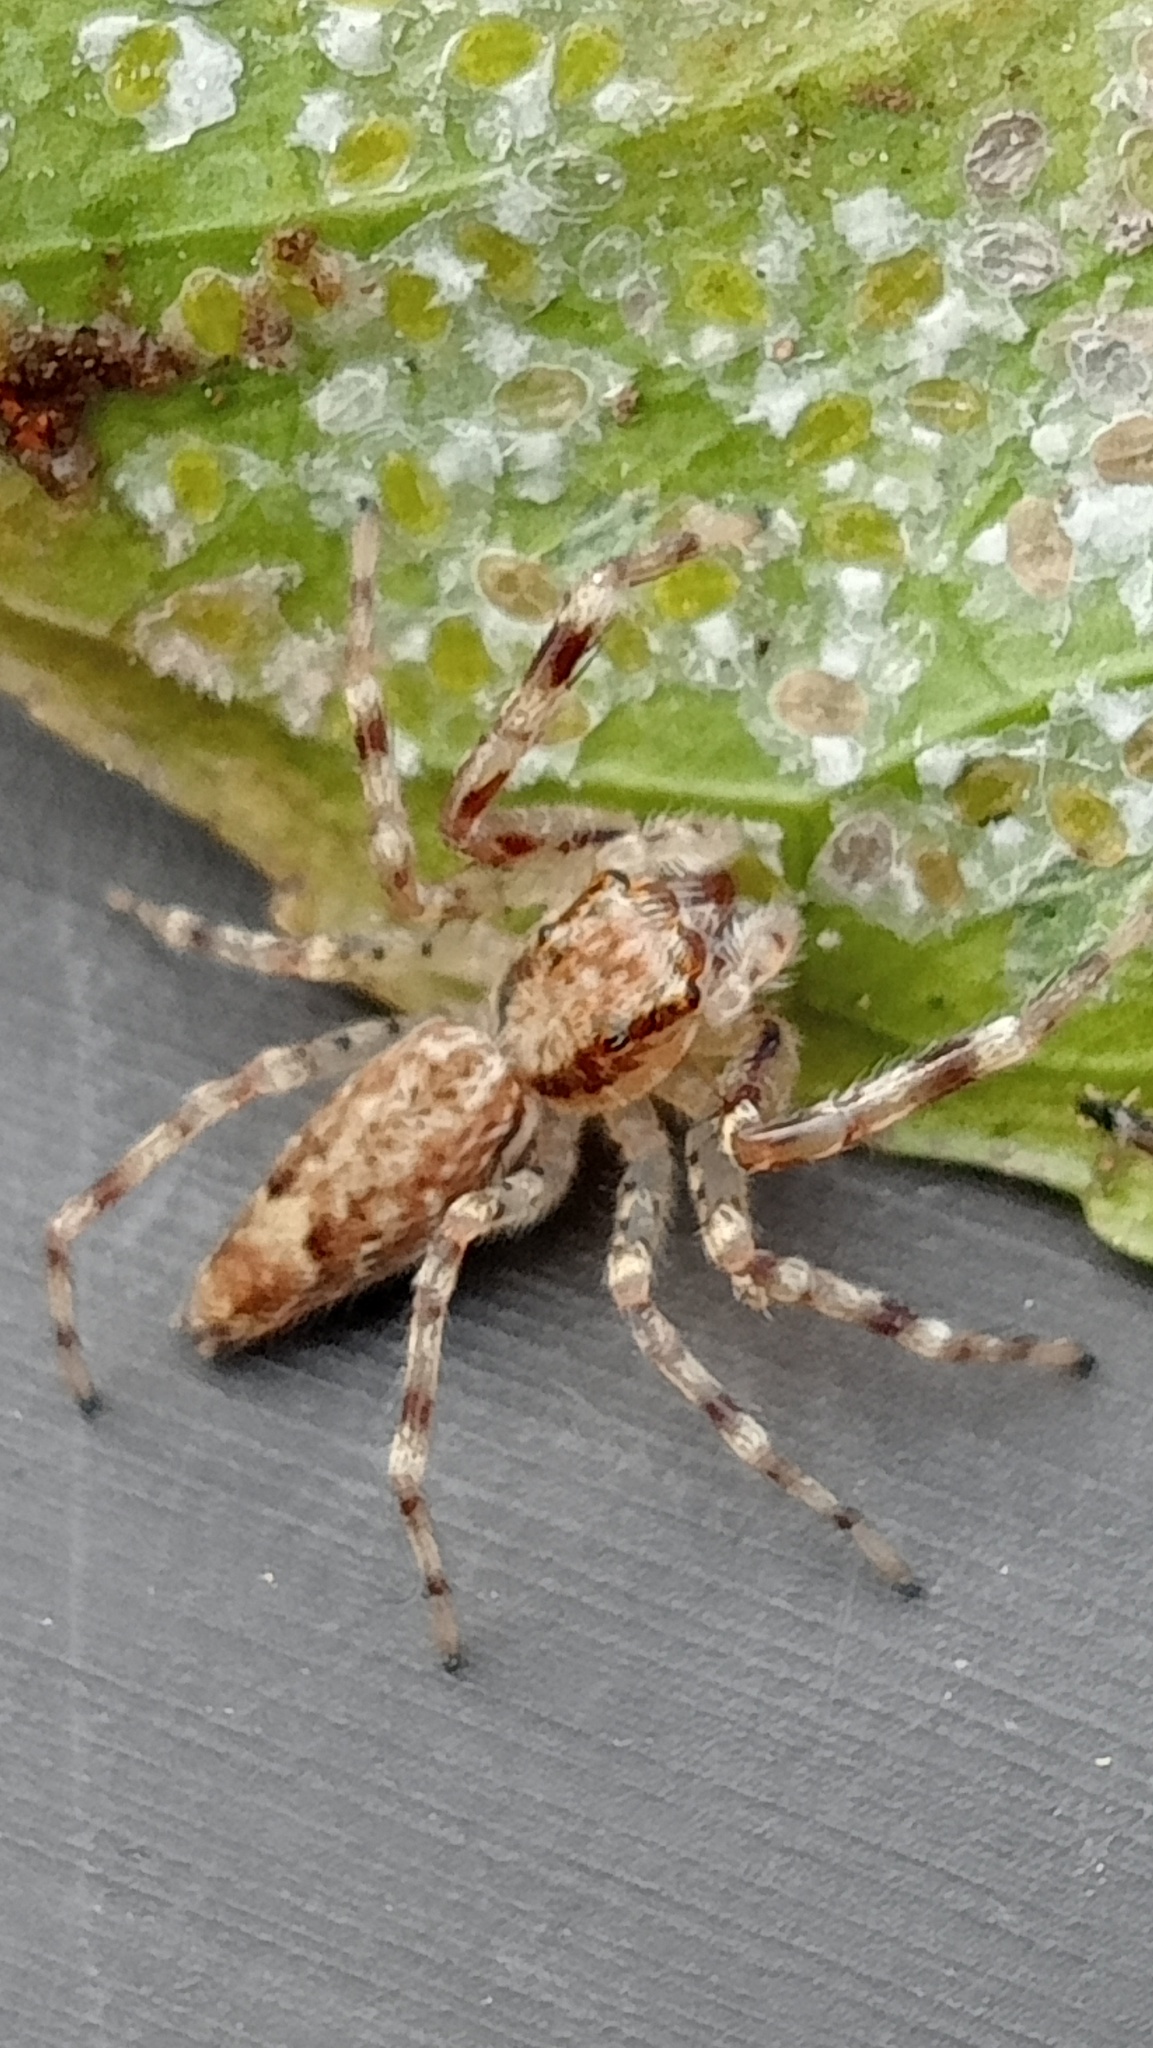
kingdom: Animalia
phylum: Arthropoda
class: Arachnida
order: Araneae
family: Salticidae
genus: Helpis
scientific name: Helpis minitabunda
